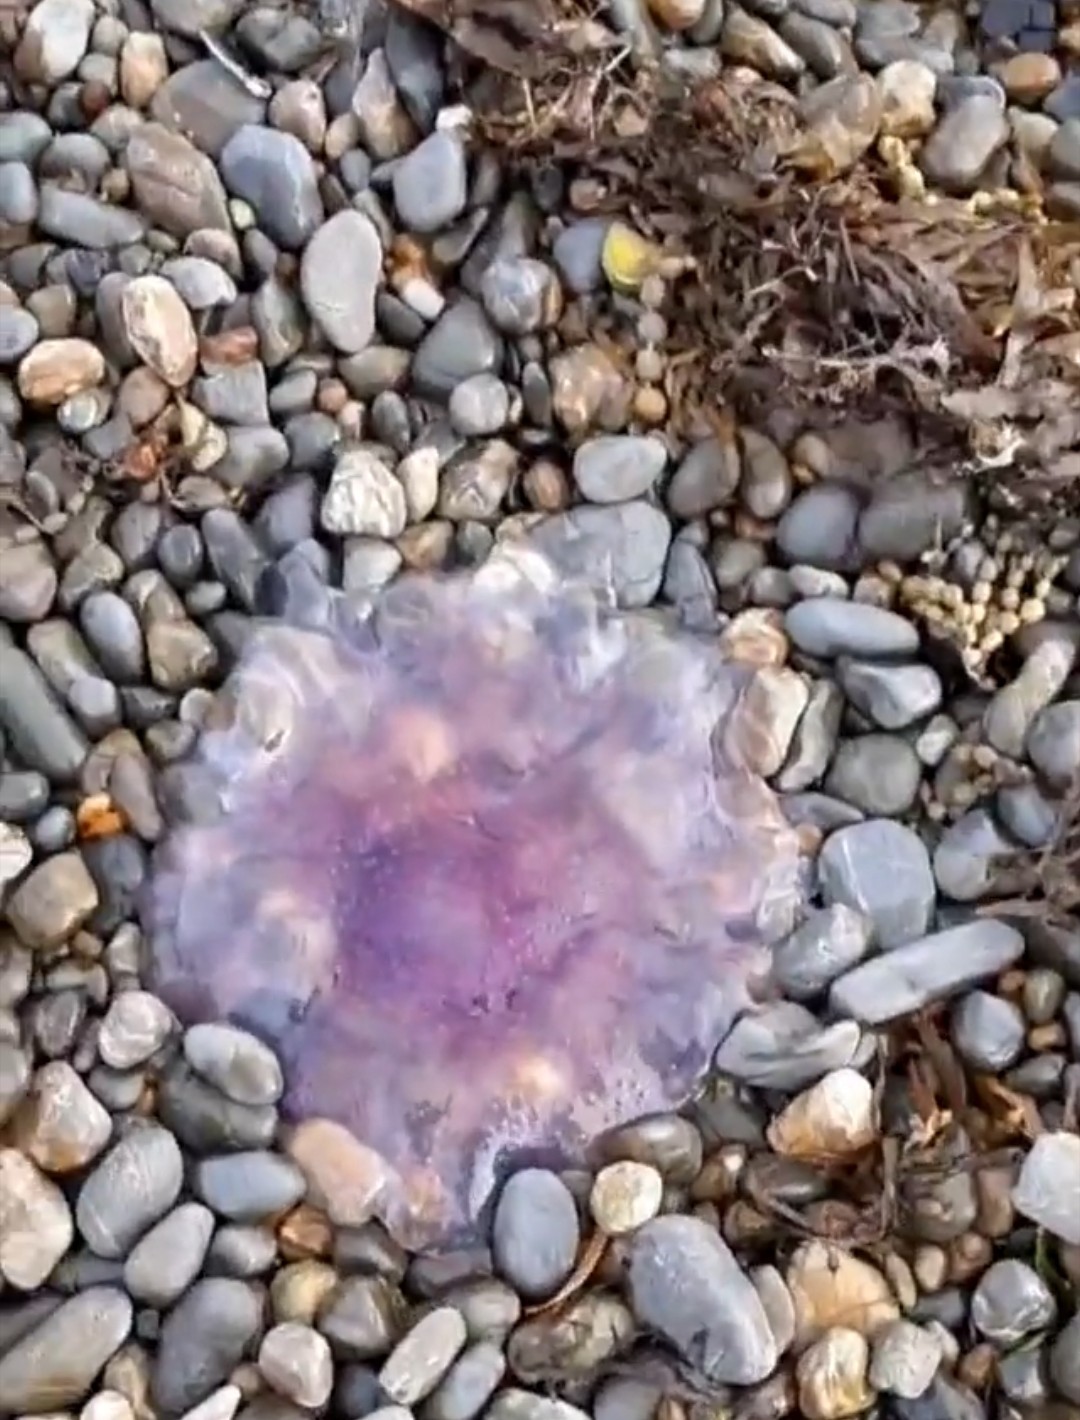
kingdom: Animalia
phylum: Cnidaria
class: Scyphozoa
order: Semaeostomeae
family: Cyaneidae
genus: Cyanea
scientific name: Cyanea
